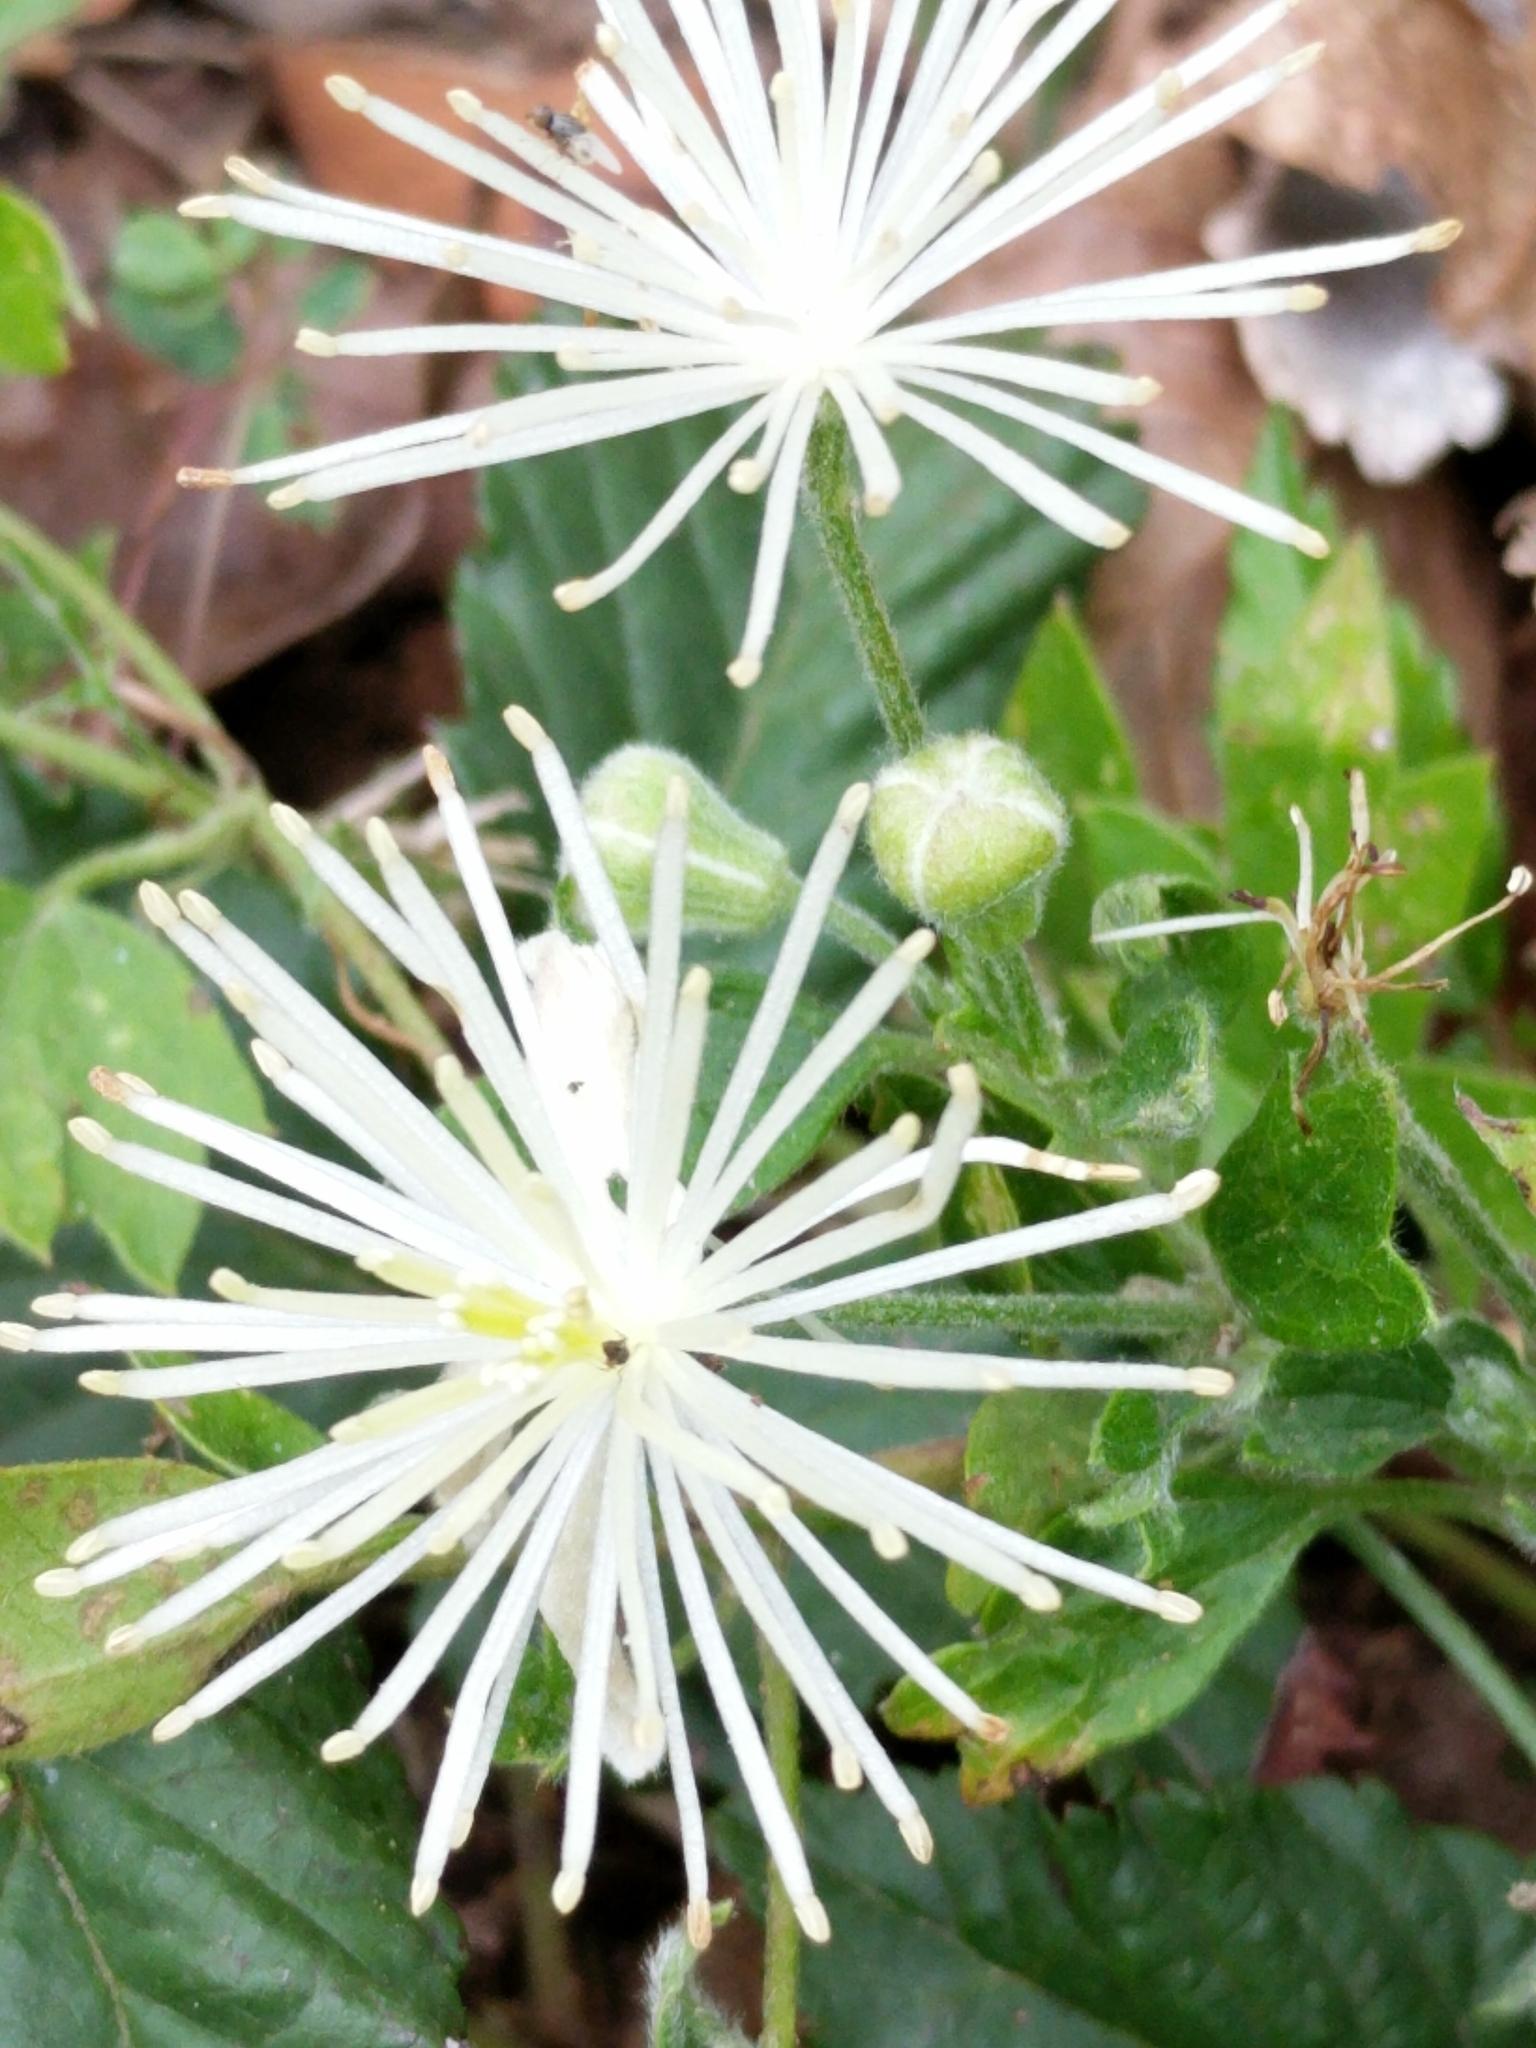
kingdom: Plantae
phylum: Tracheophyta
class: Magnoliopsida
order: Ranunculales
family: Ranunculaceae
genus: Clematis
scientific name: Clematis drummondii
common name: Texas virgin's bower
